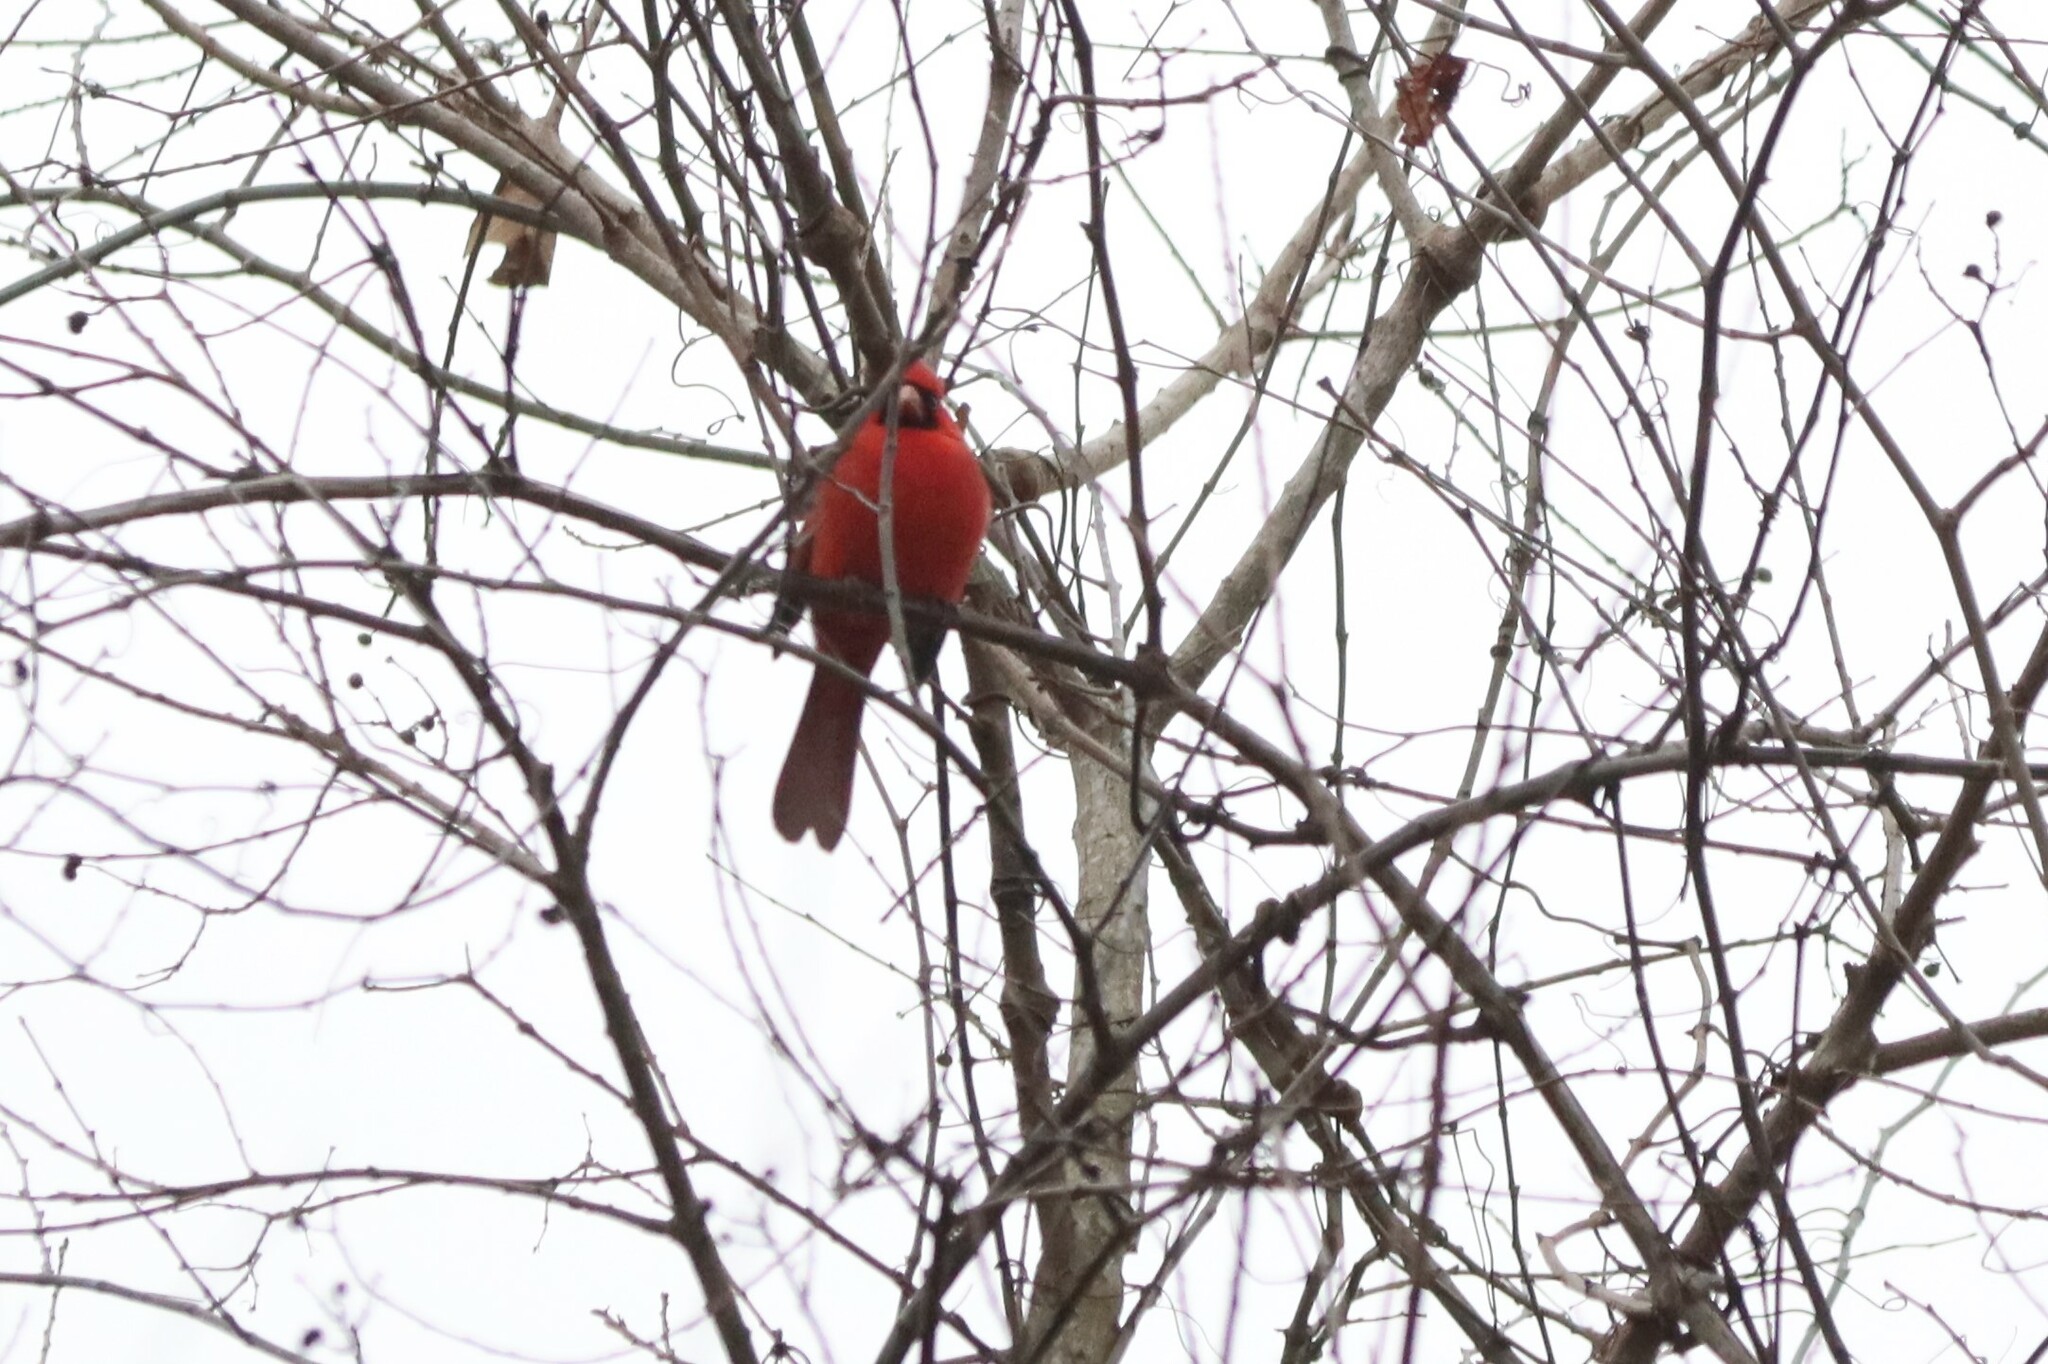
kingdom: Animalia
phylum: Chordata
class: Aves
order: Passeriformes
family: Cardinalidae
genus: Cardinalis
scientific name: Cardinalis cardinalis
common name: Northern cardinal
